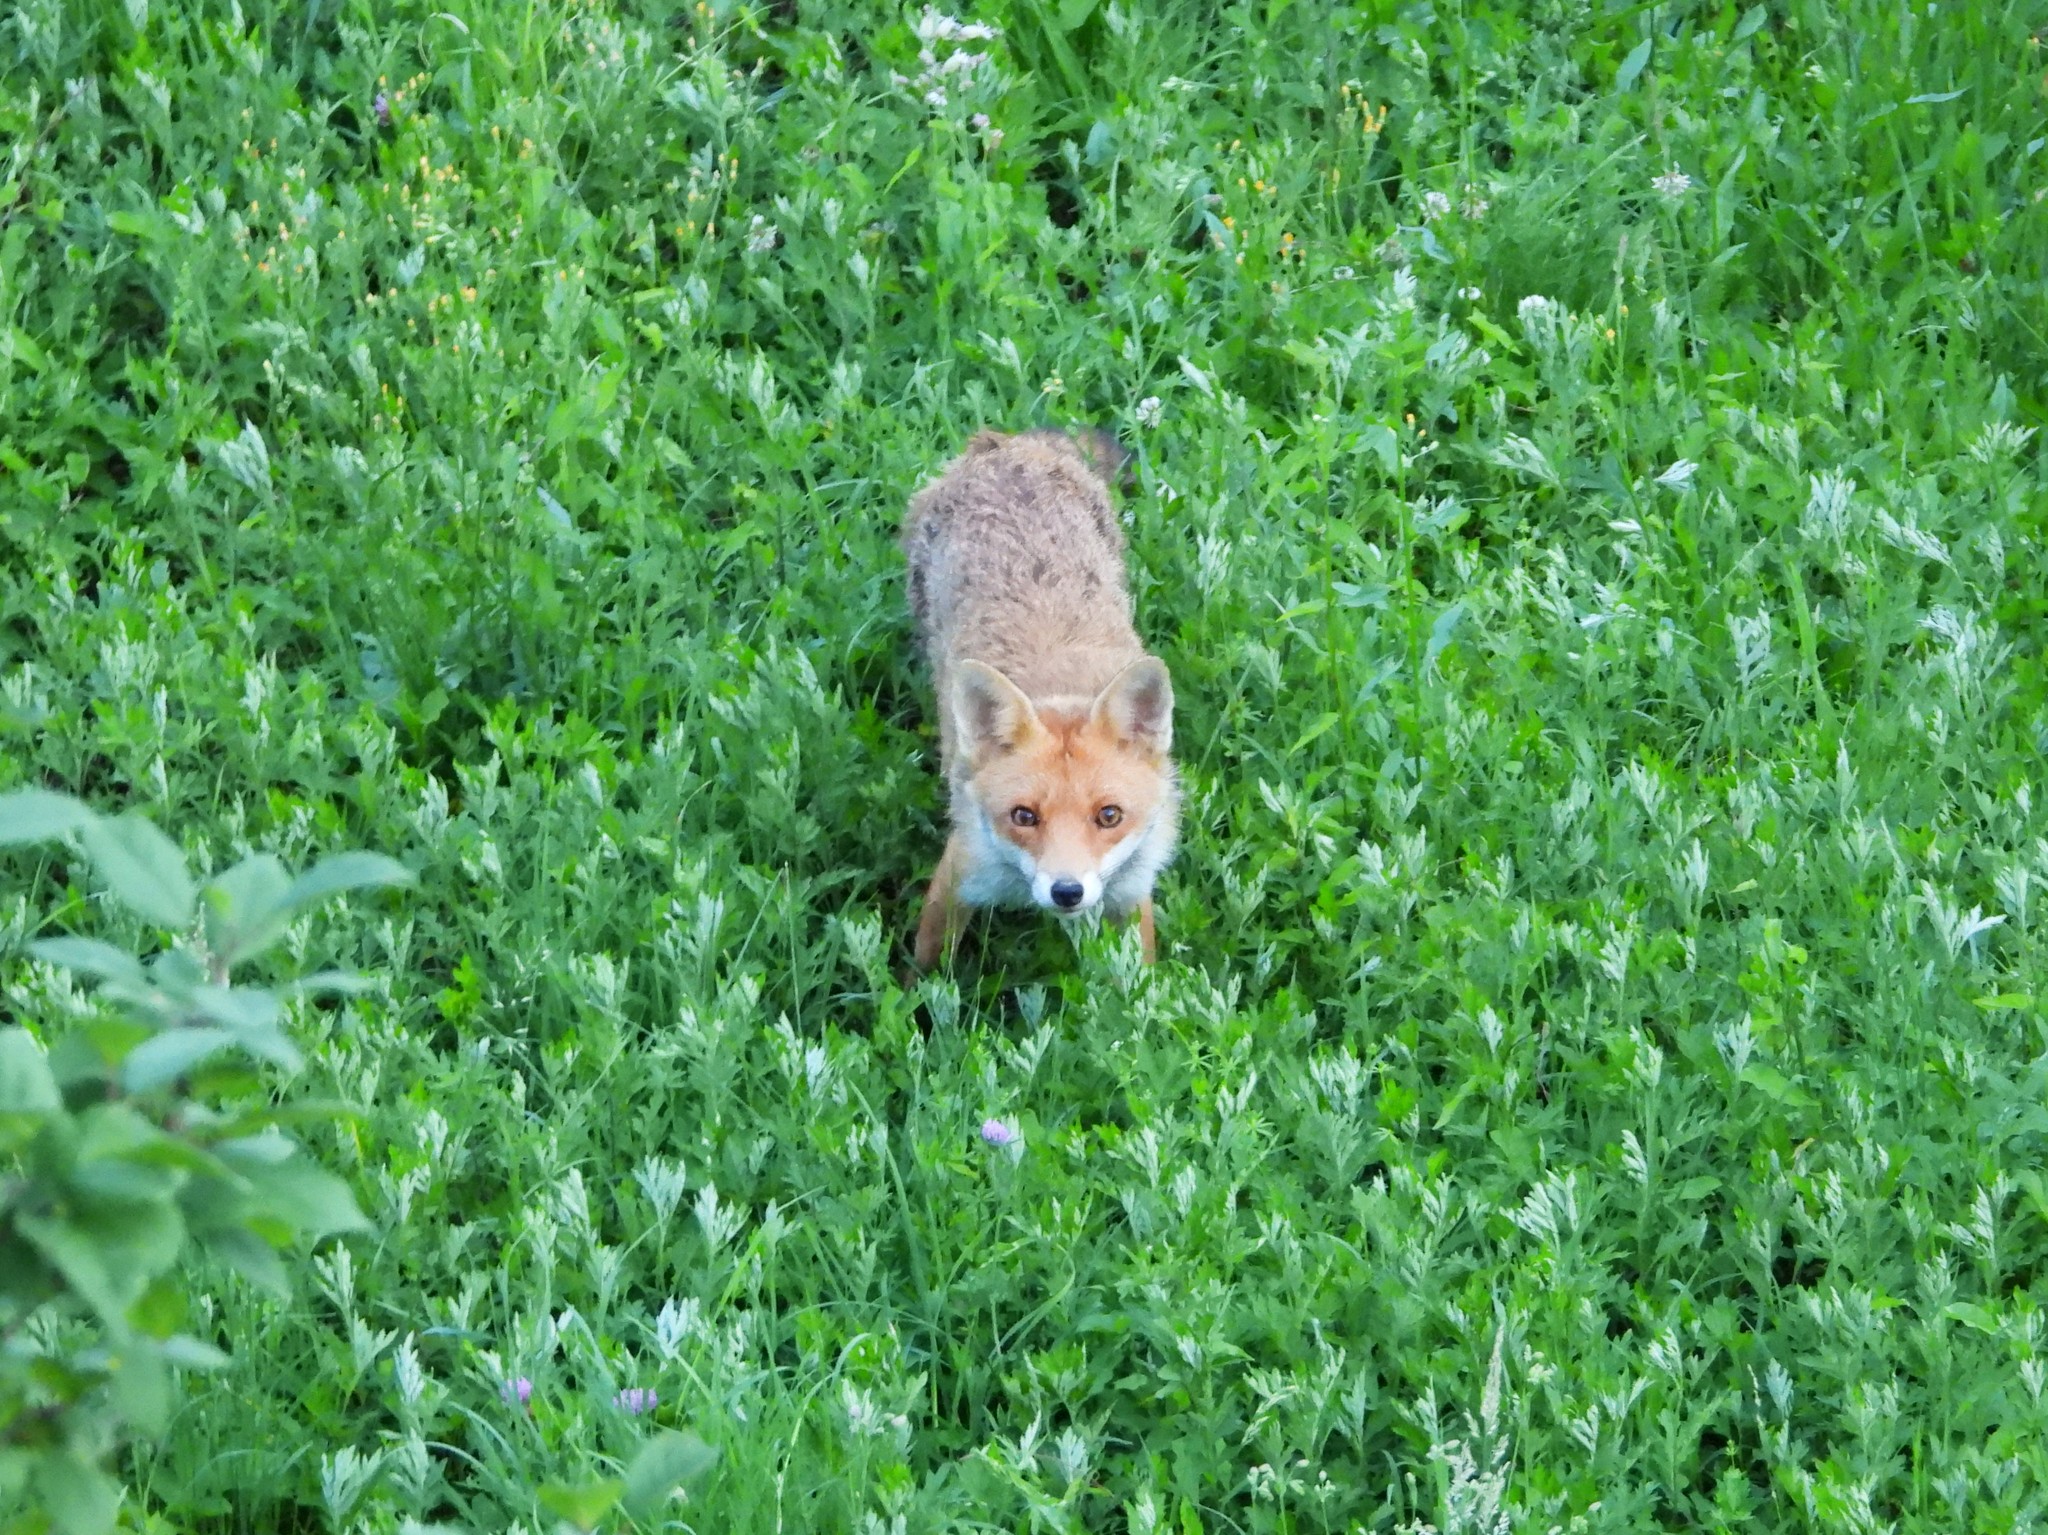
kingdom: Animalia
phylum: Chordata
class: Mammalia
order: Carnivora
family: Canidae
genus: Vulpes
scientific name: Vulpes vulpes
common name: Red fox
